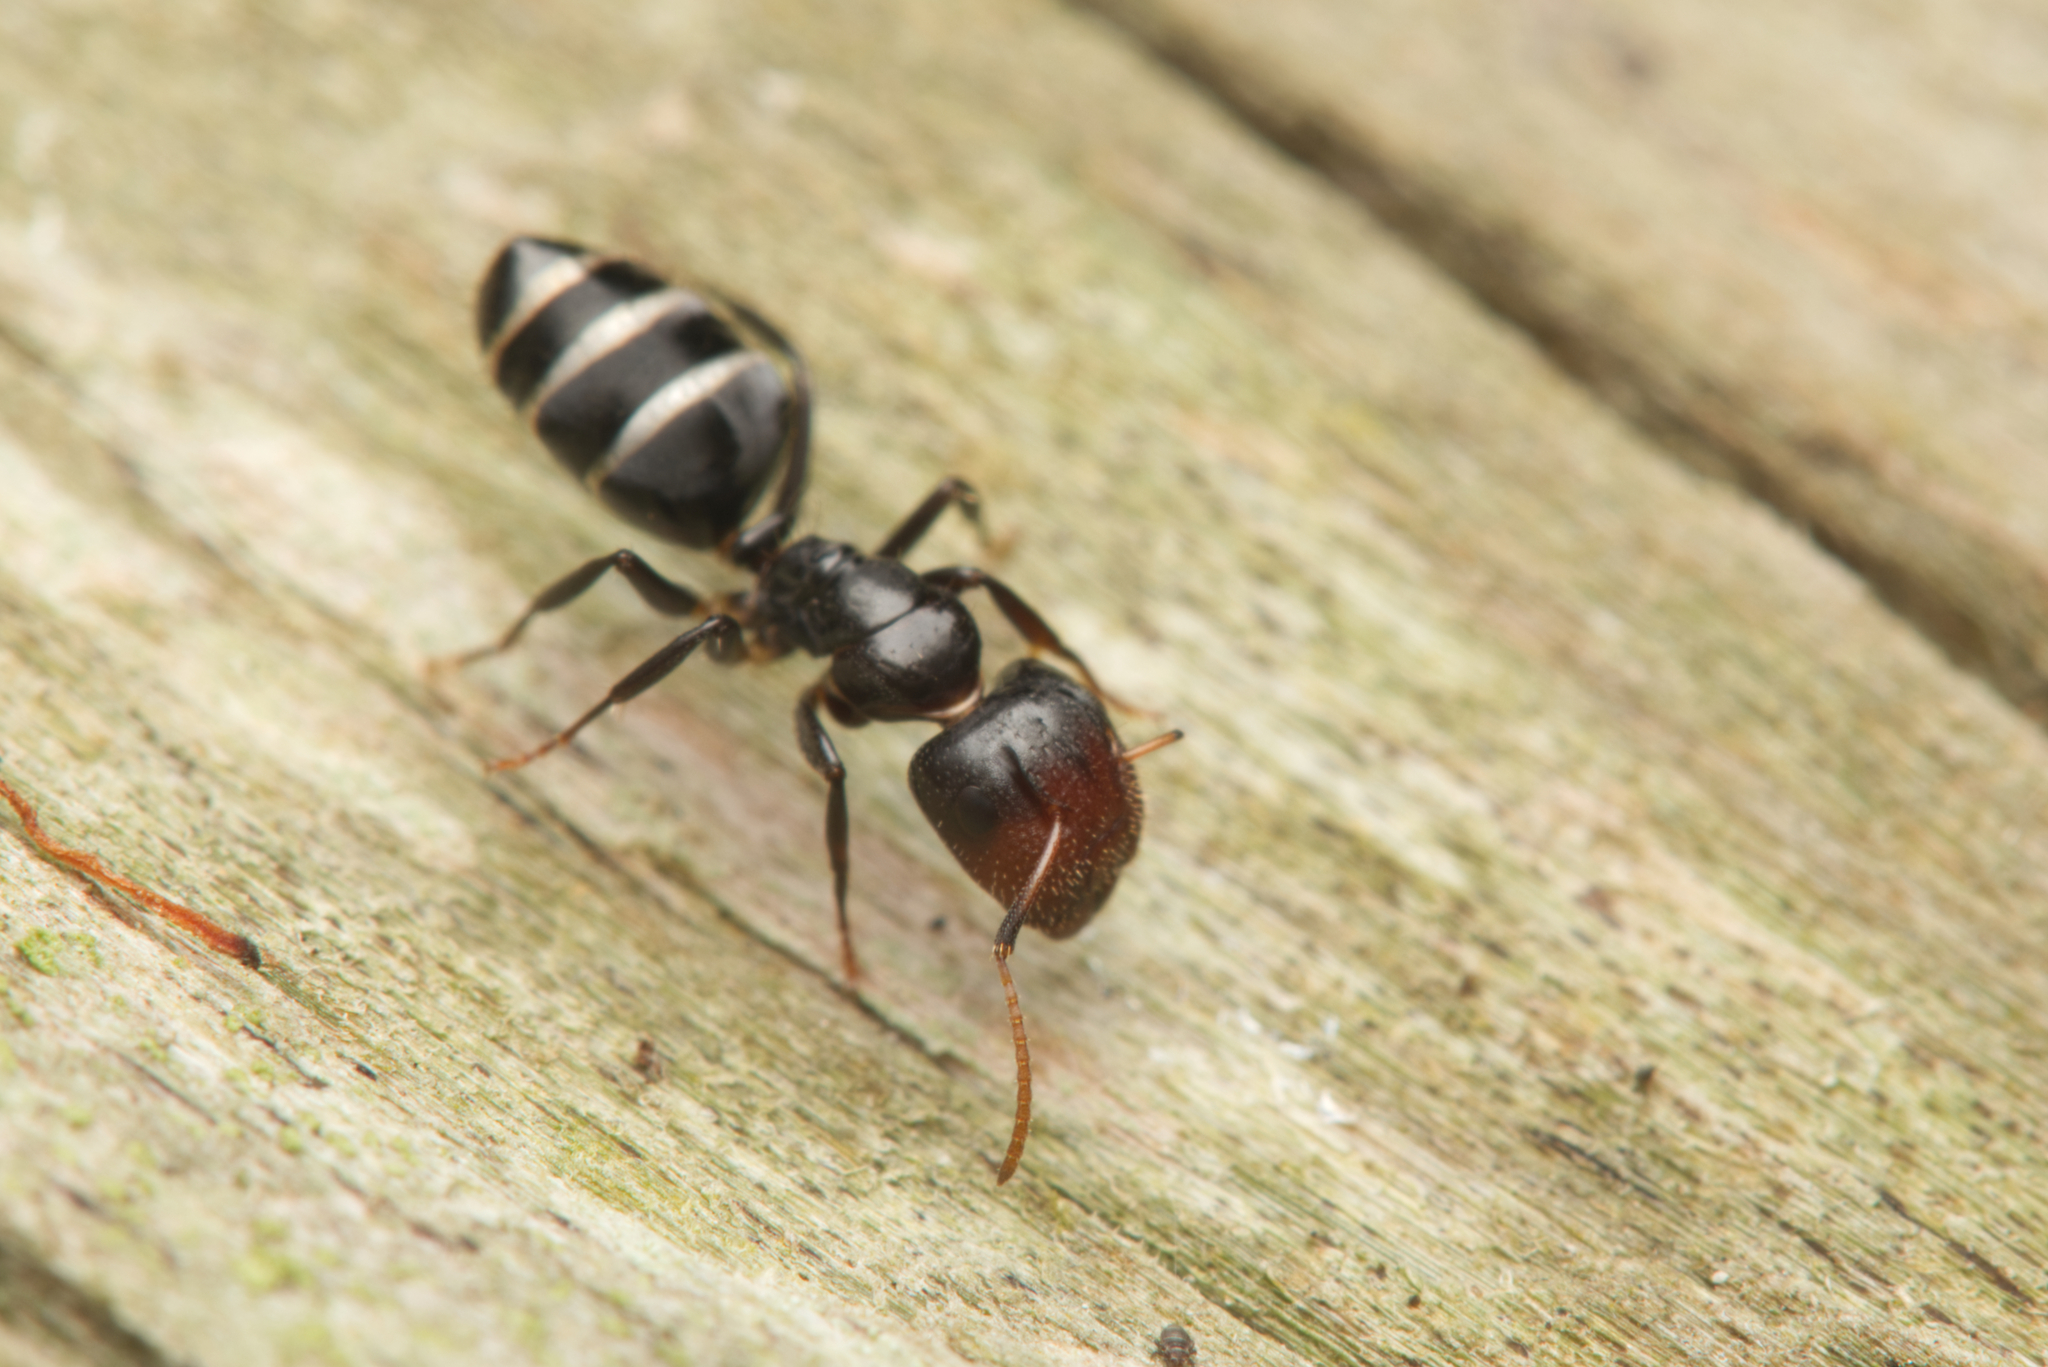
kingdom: Animalia
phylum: Arthropoda
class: Insecta
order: Hymenoptera
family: Formicidae
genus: Camponotus
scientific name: Camponotus mackayensis
